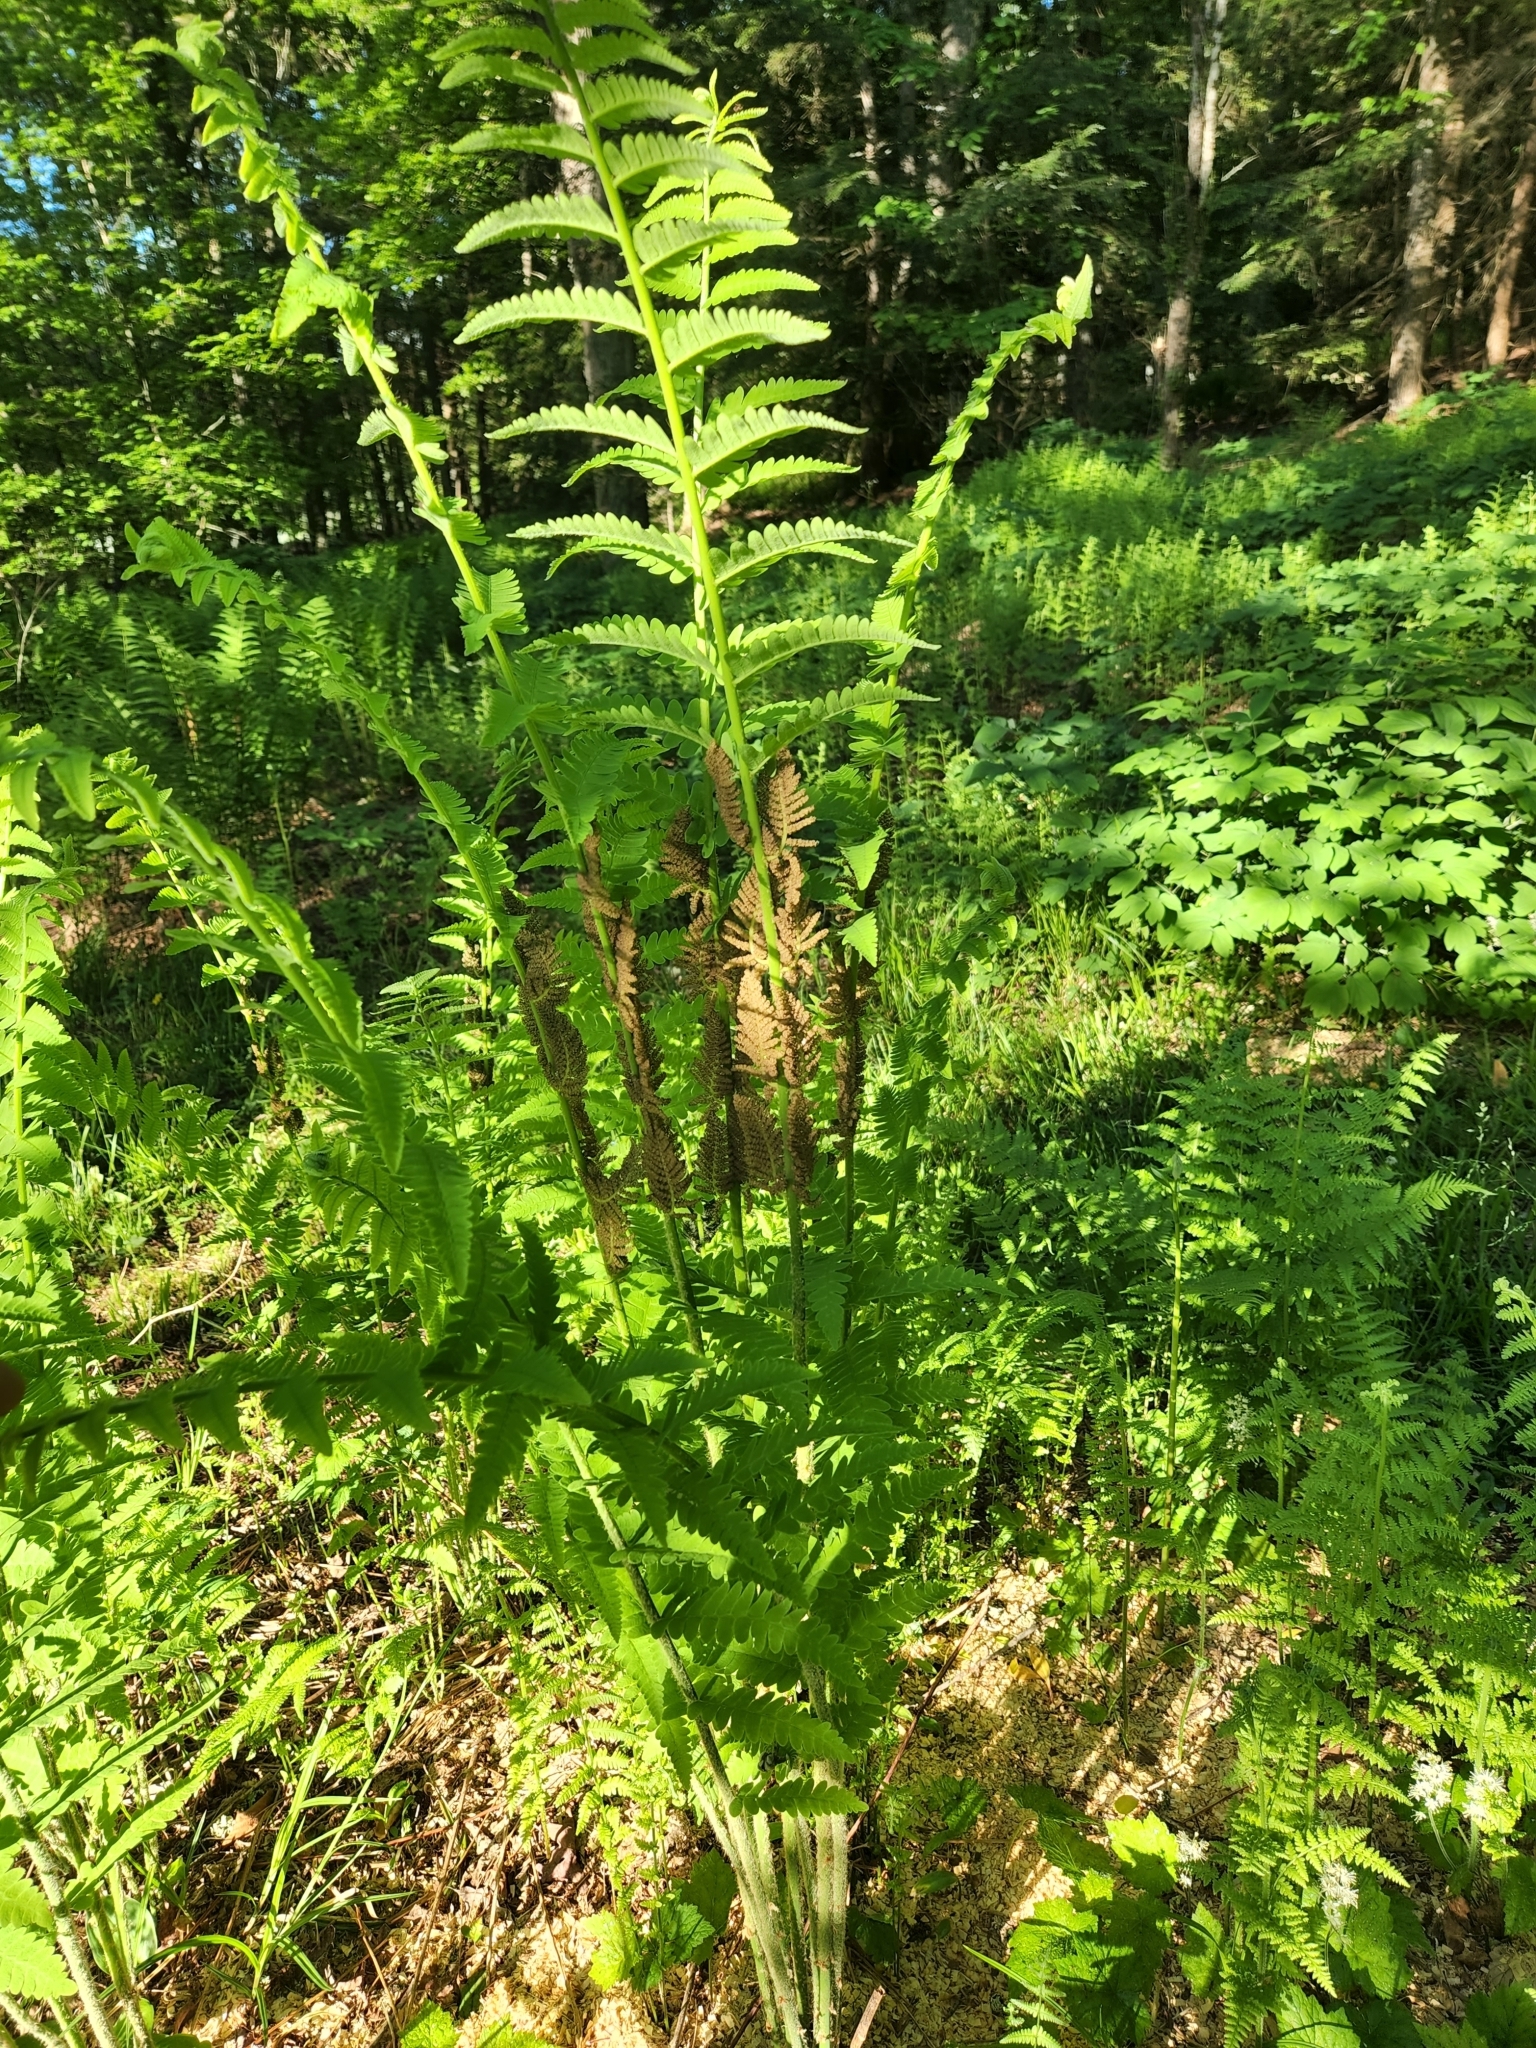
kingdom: Plantae
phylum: Tracheophyta
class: Polypodiopsida
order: Osmundales
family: Osmundaceae
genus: Claytosmunda
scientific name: Claytosmunda claytoniana
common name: Clayton's fern
